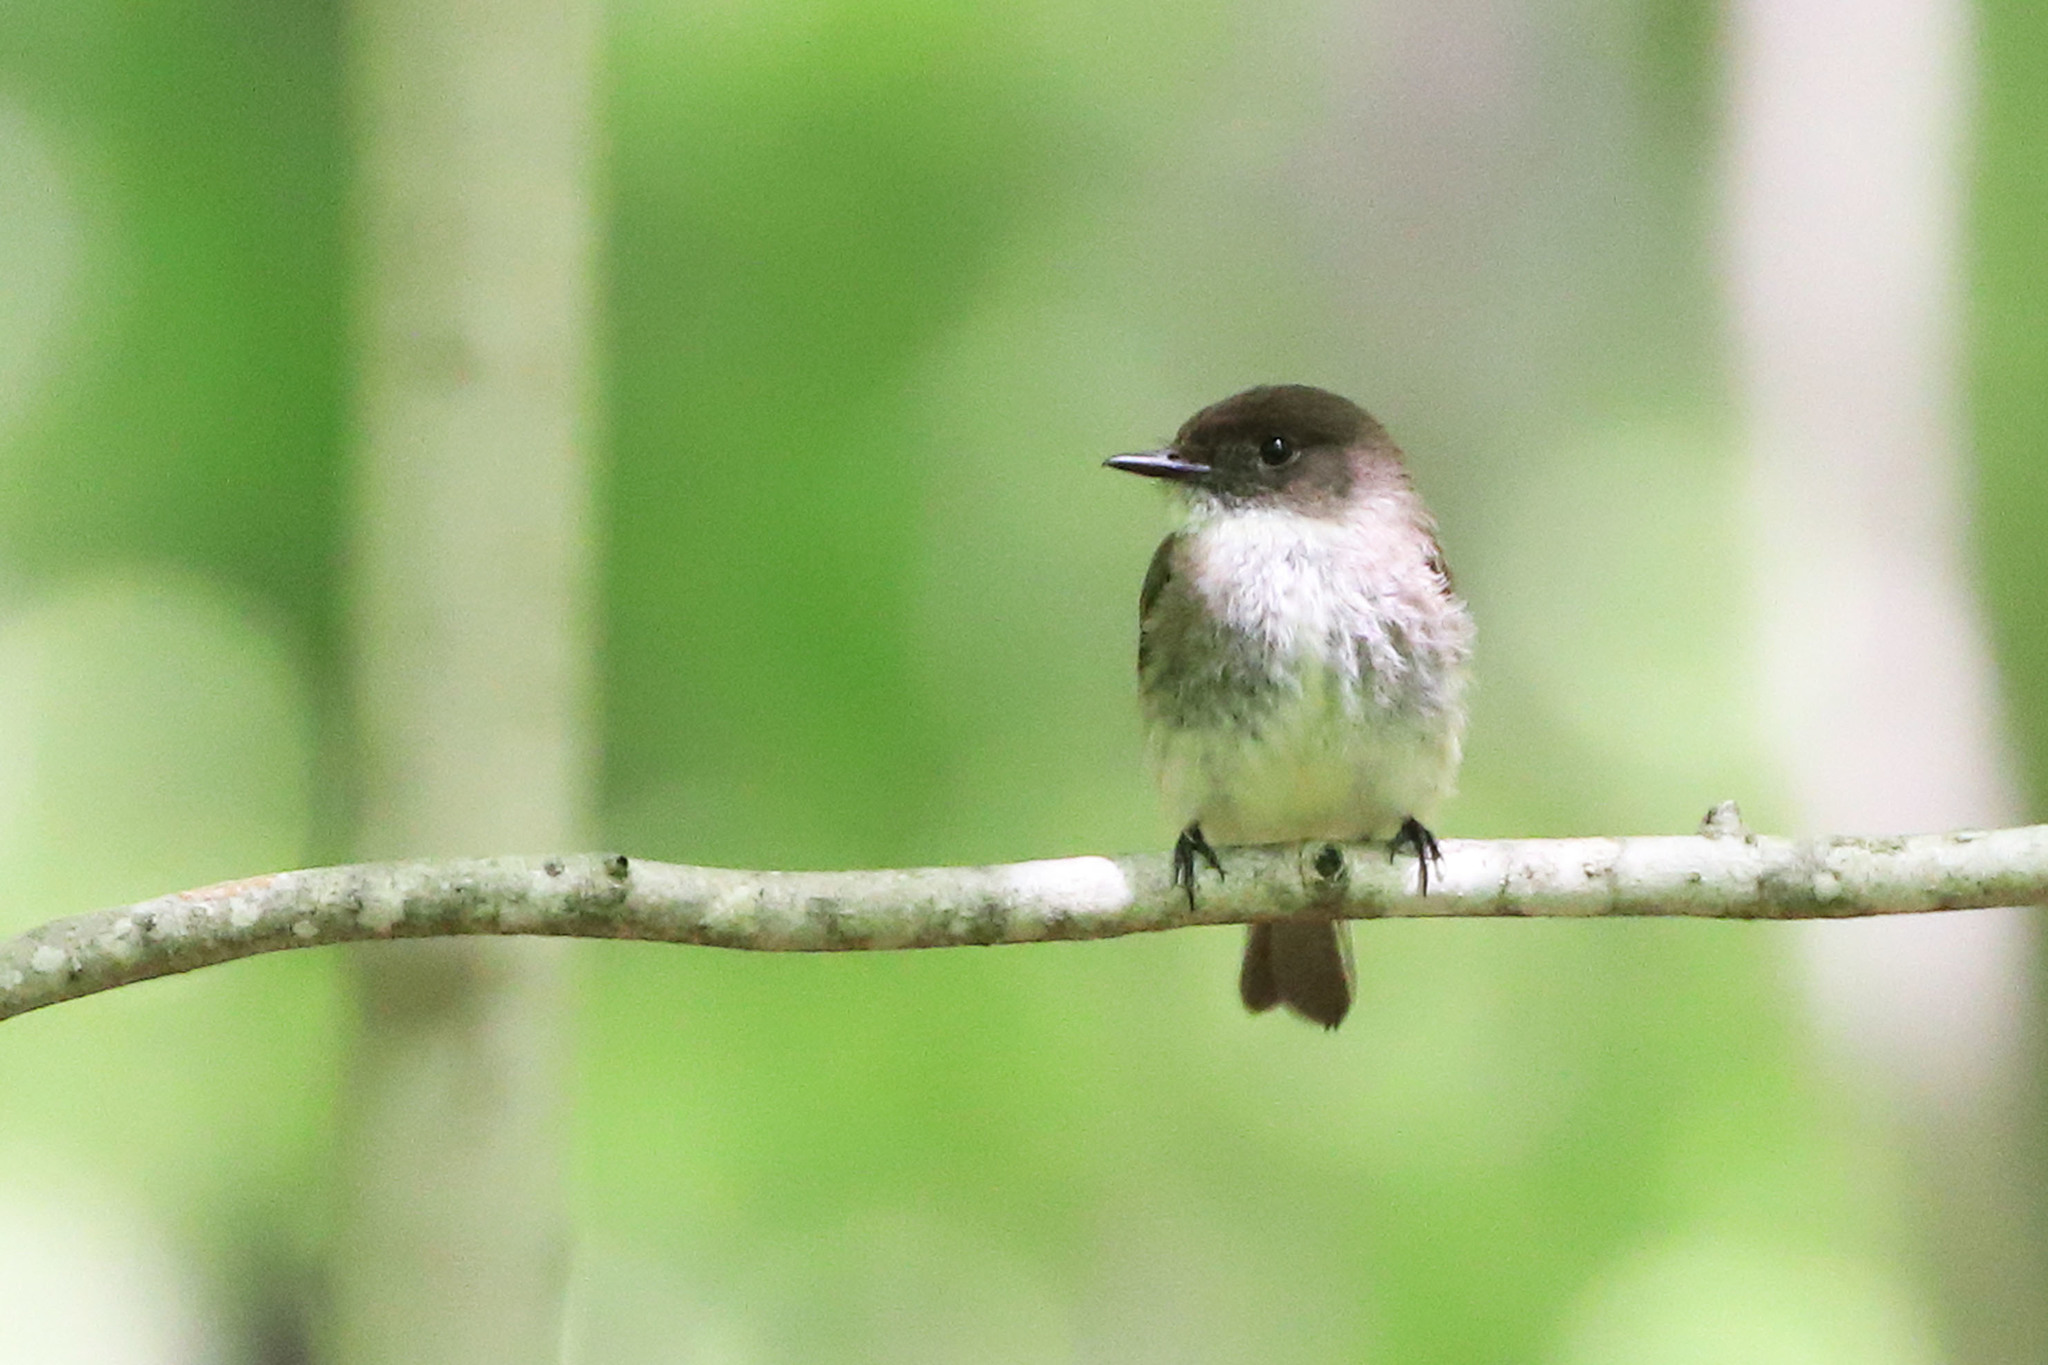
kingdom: Animalia
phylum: Chordata
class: Aves
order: Passeriformes
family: Tyrannidae
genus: Sayornis
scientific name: Sayornis phoebe
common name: Eastern phoebe
